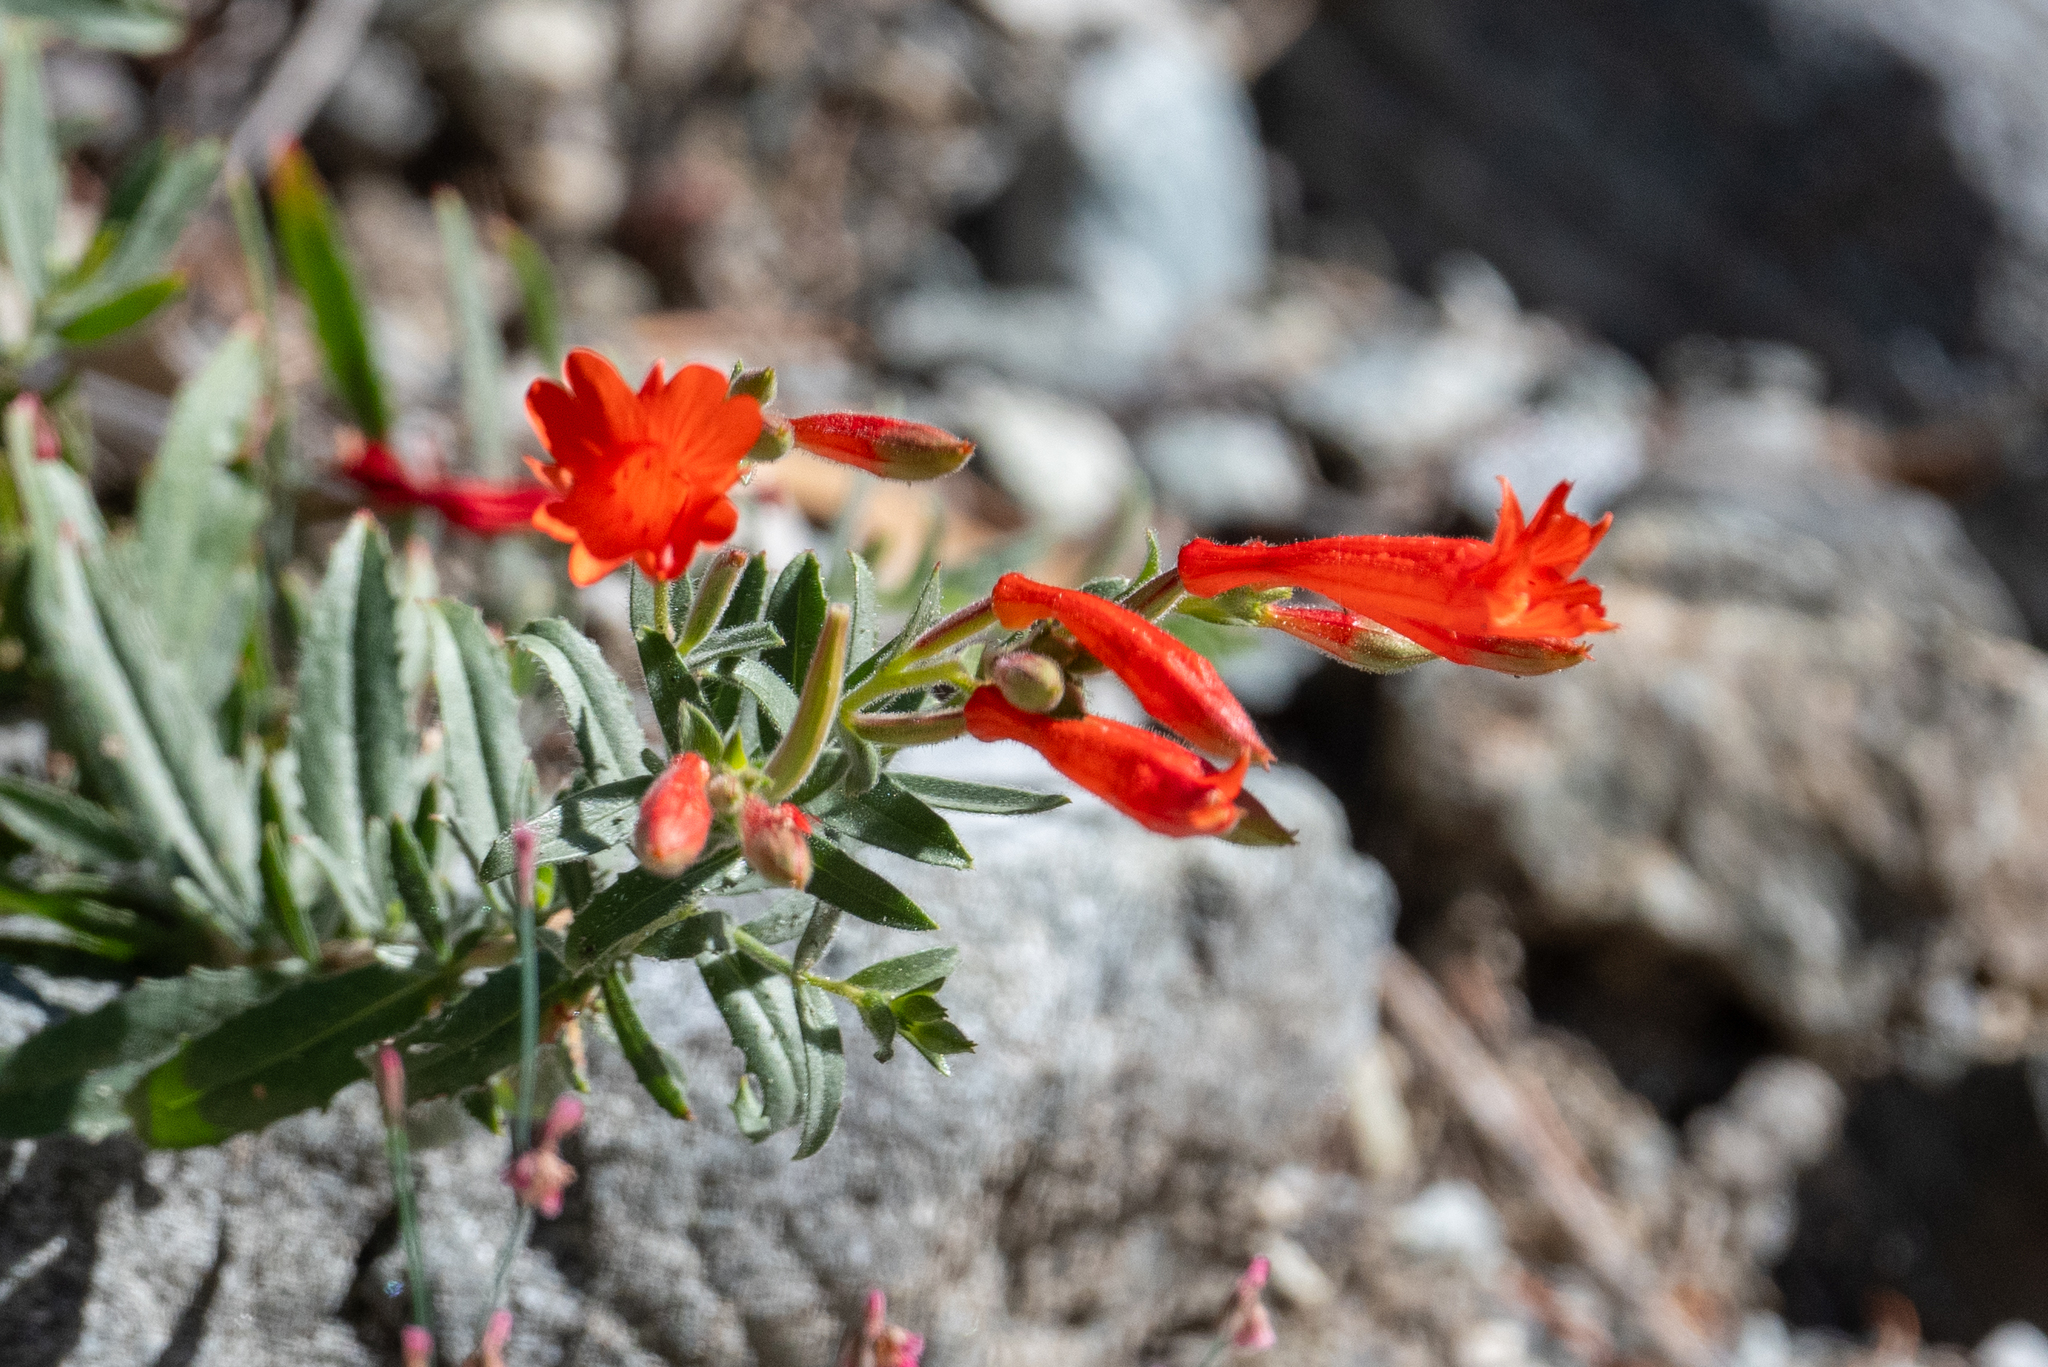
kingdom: Plantae
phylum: Tracheophyta
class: Magnoliopsida
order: Myrtales
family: Onagraceae
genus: Epilobium
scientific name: Epilobium canum
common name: California-fuchsia
